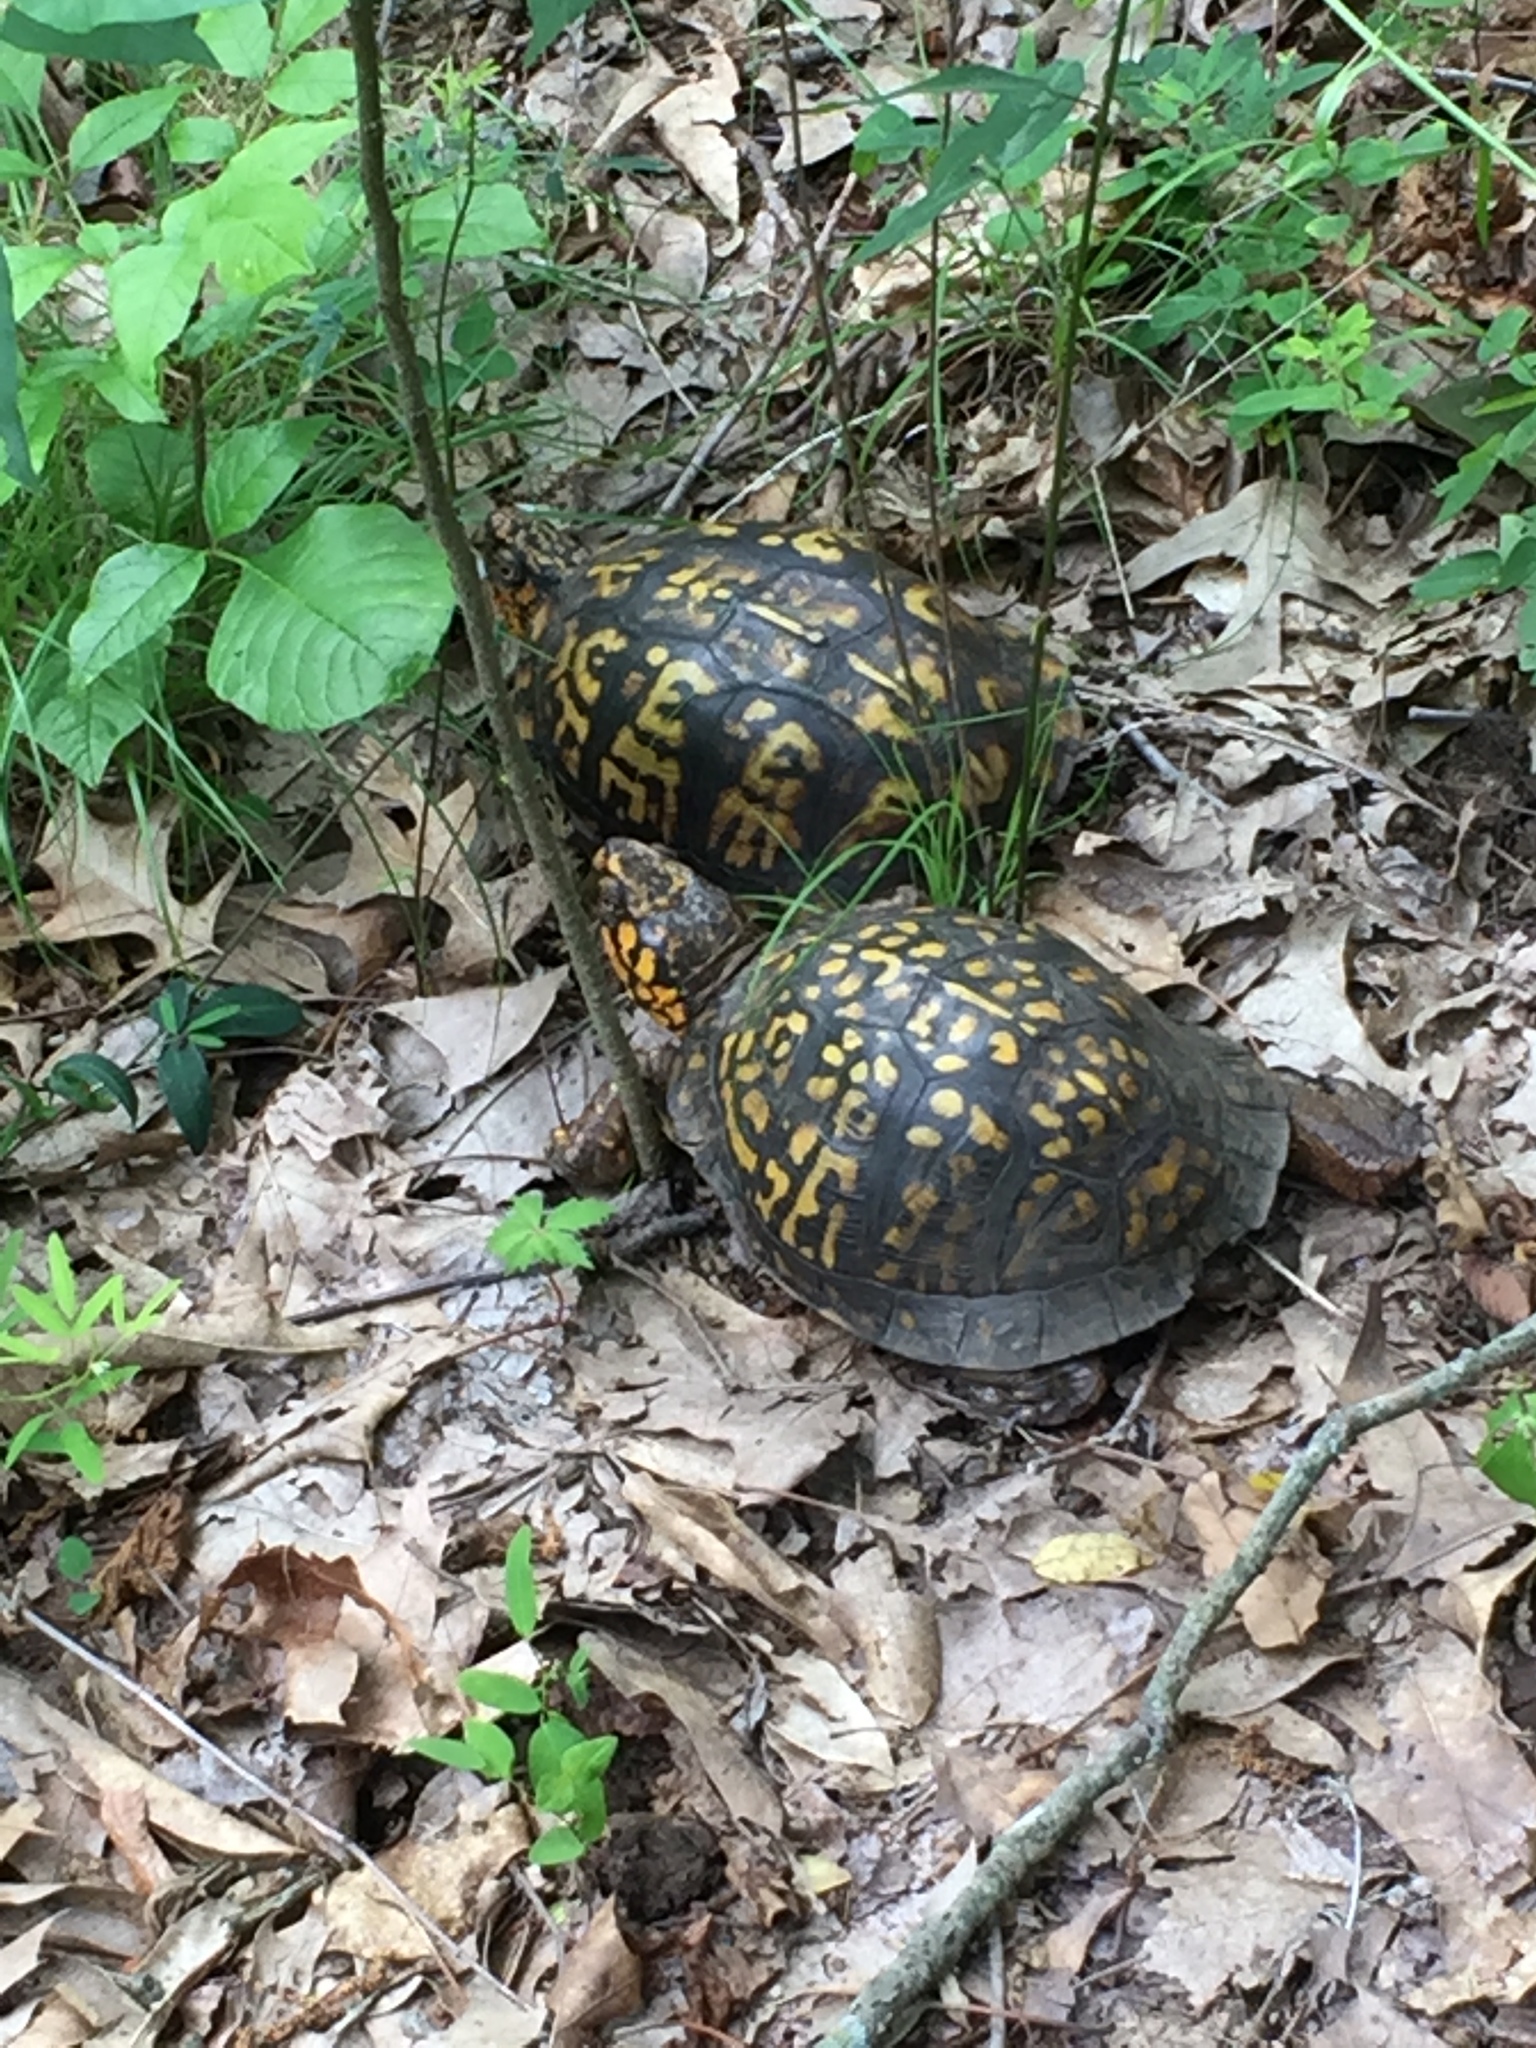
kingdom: Animalia
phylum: Chordata
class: Testudines
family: Emydidae
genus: Terrapene
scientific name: Terrapene carolina
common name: Common box turtle
